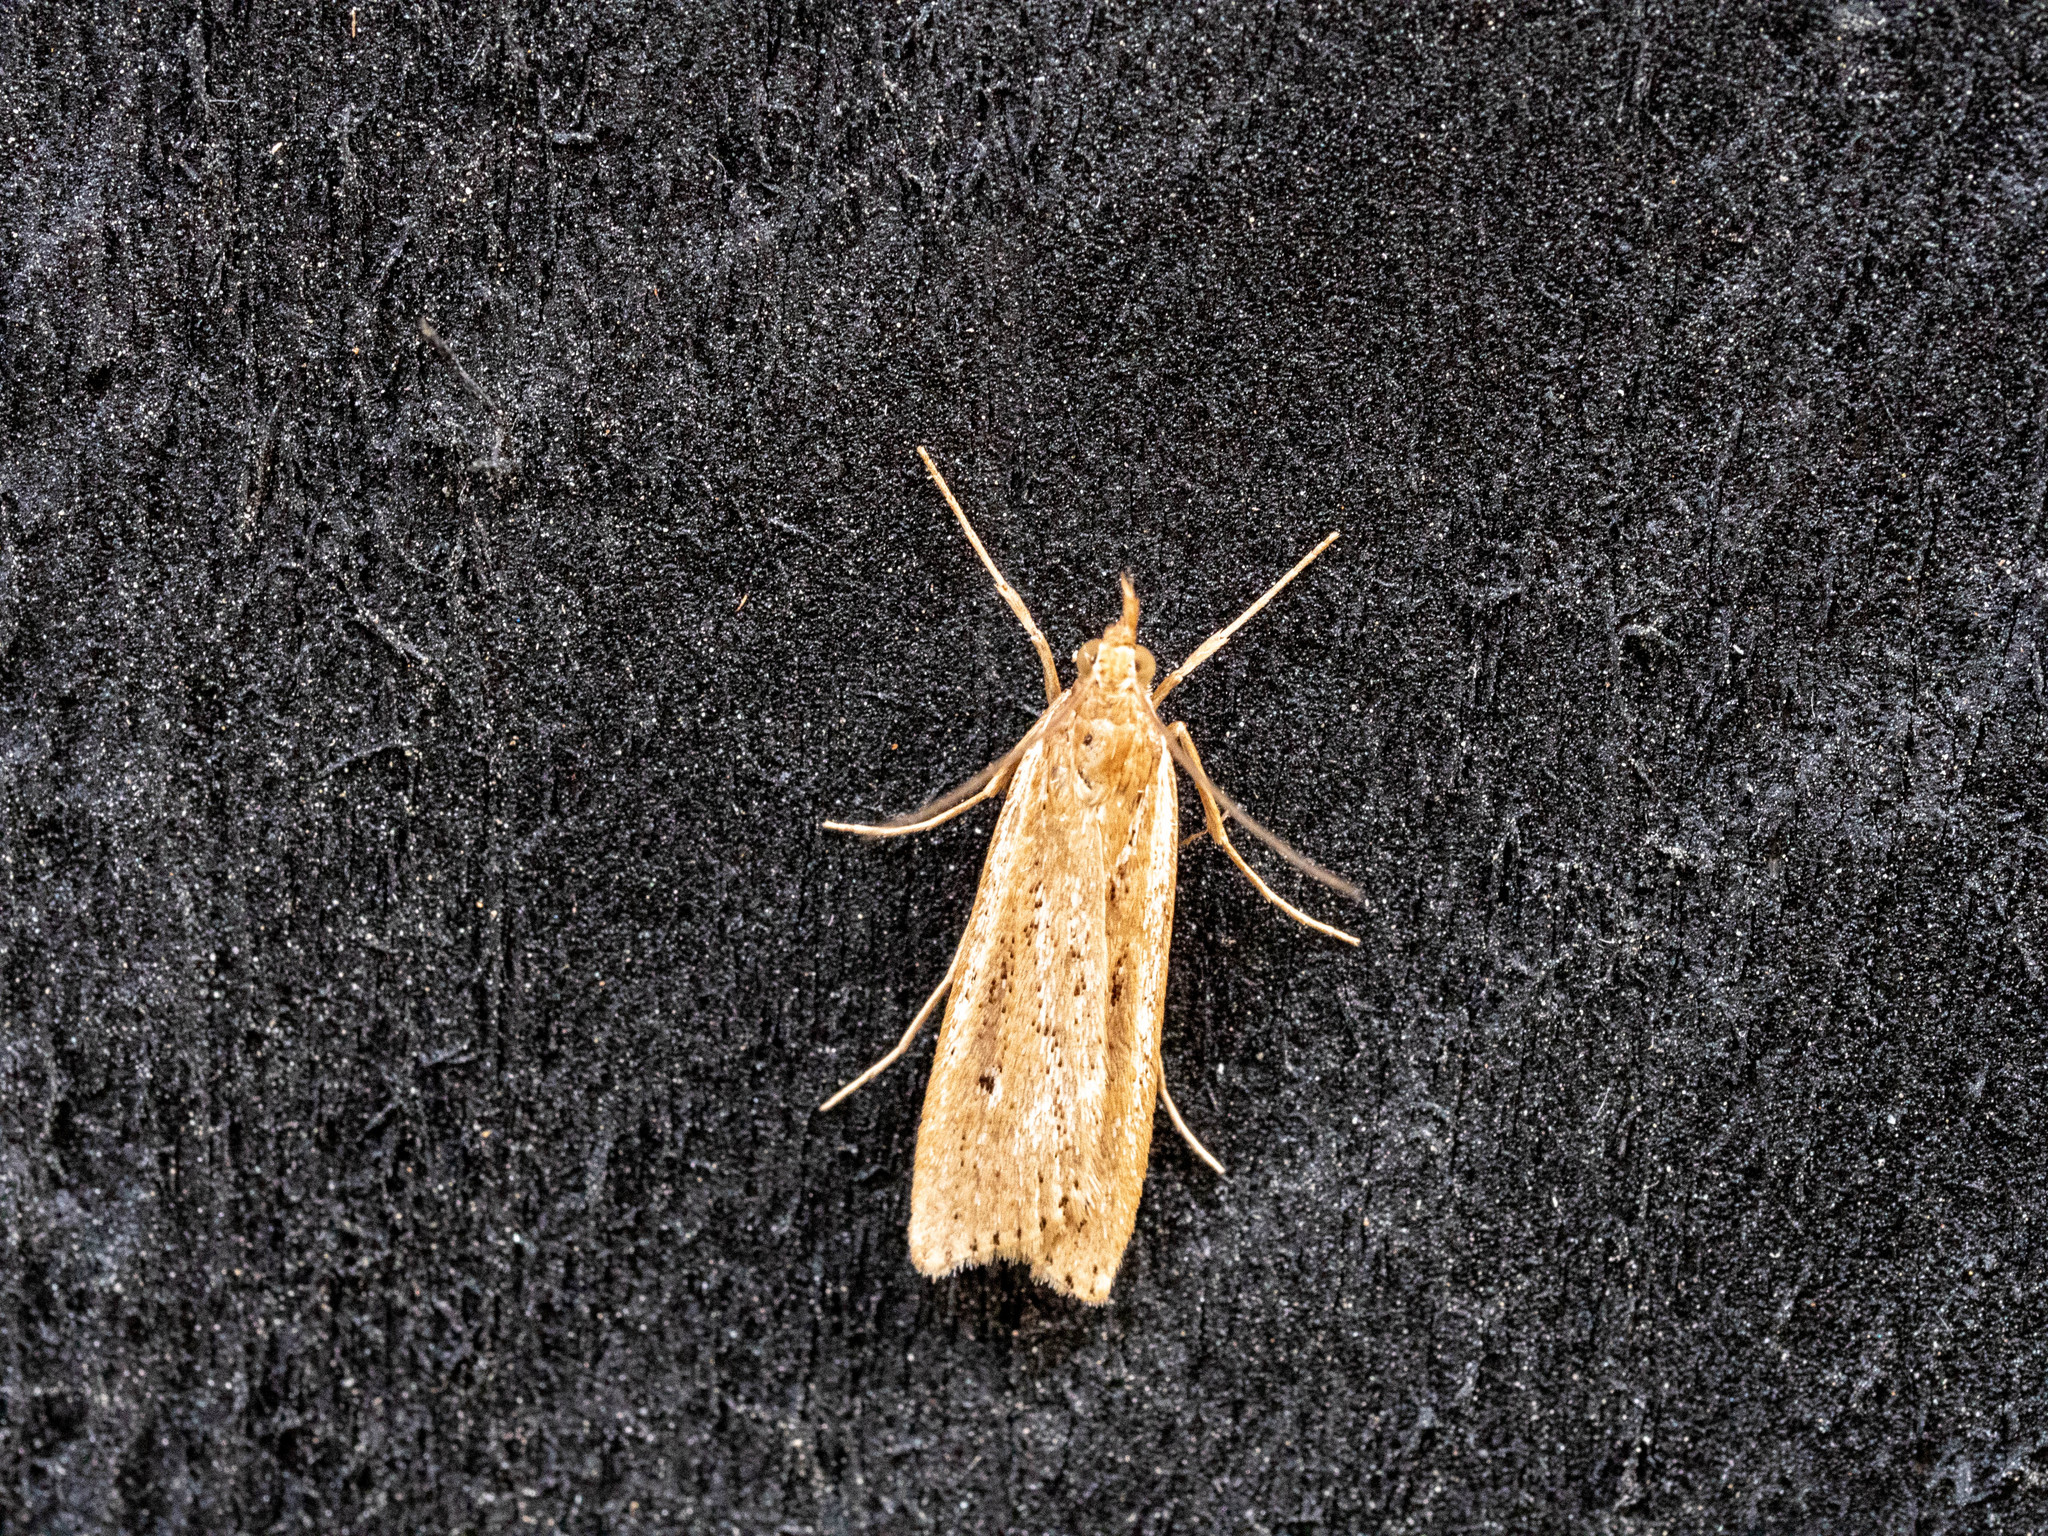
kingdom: Animalia
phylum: Arthropoda
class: Insecta
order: Lepidoptera
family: Crambidae
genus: Eudonia
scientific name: Eudonia sabulosella
